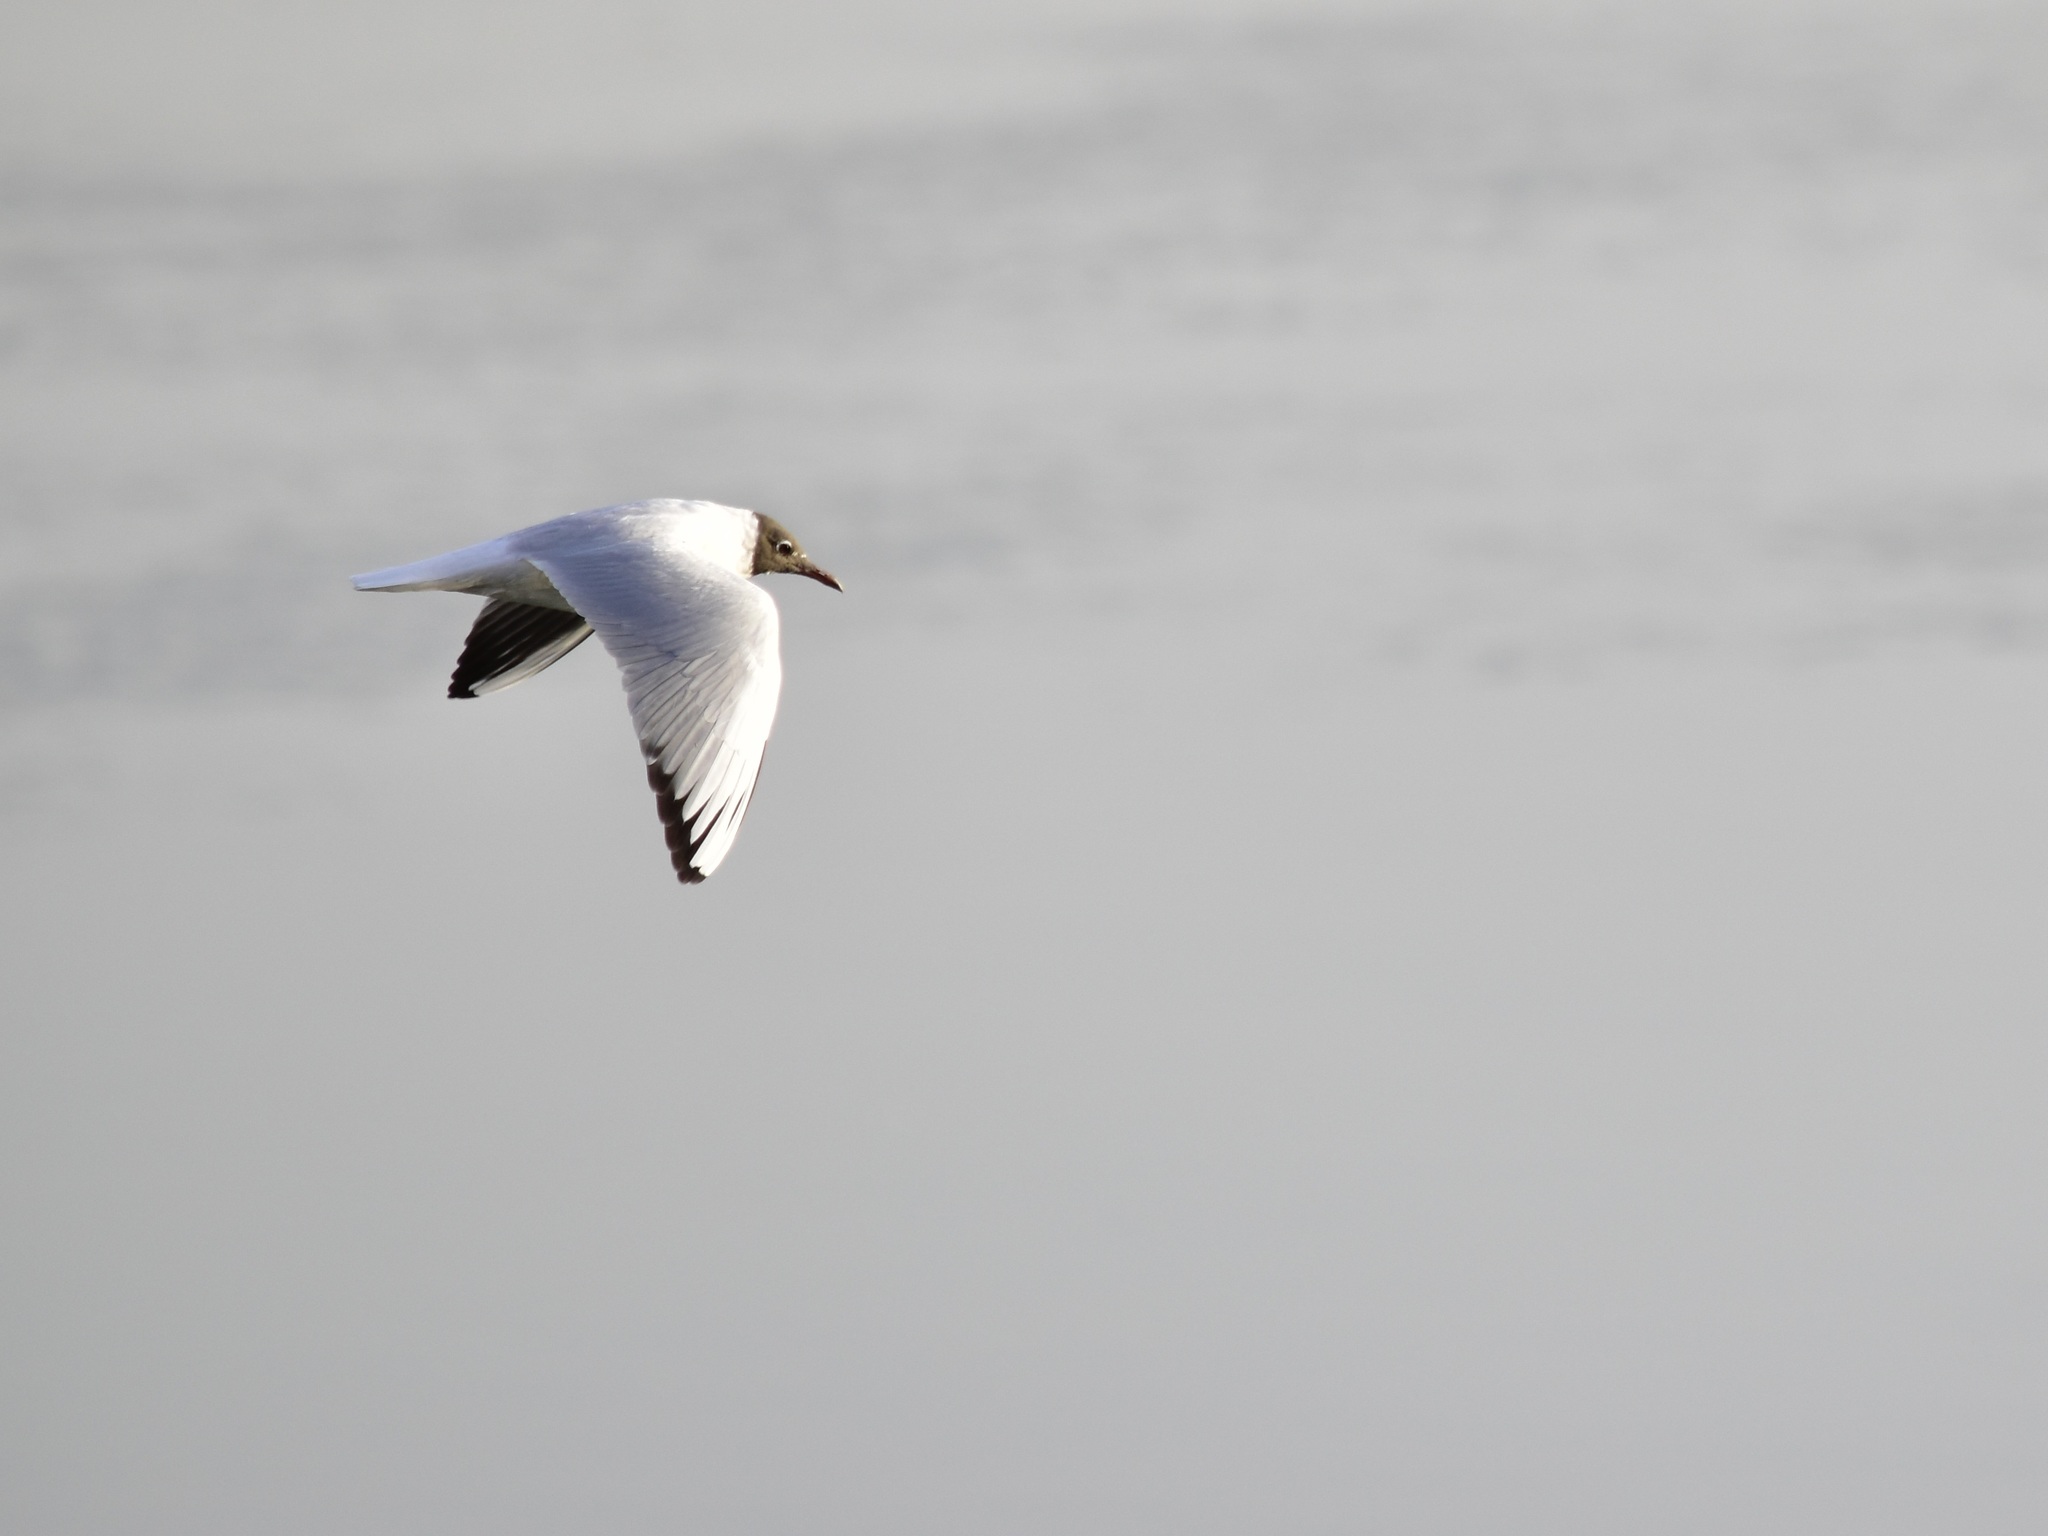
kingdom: Animalia
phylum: Chordata
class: Aves
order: Charadriiformes
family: Laridae
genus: Chroicocephalus
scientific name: Chroicocephalus ridibundus
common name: Black-headed gull
